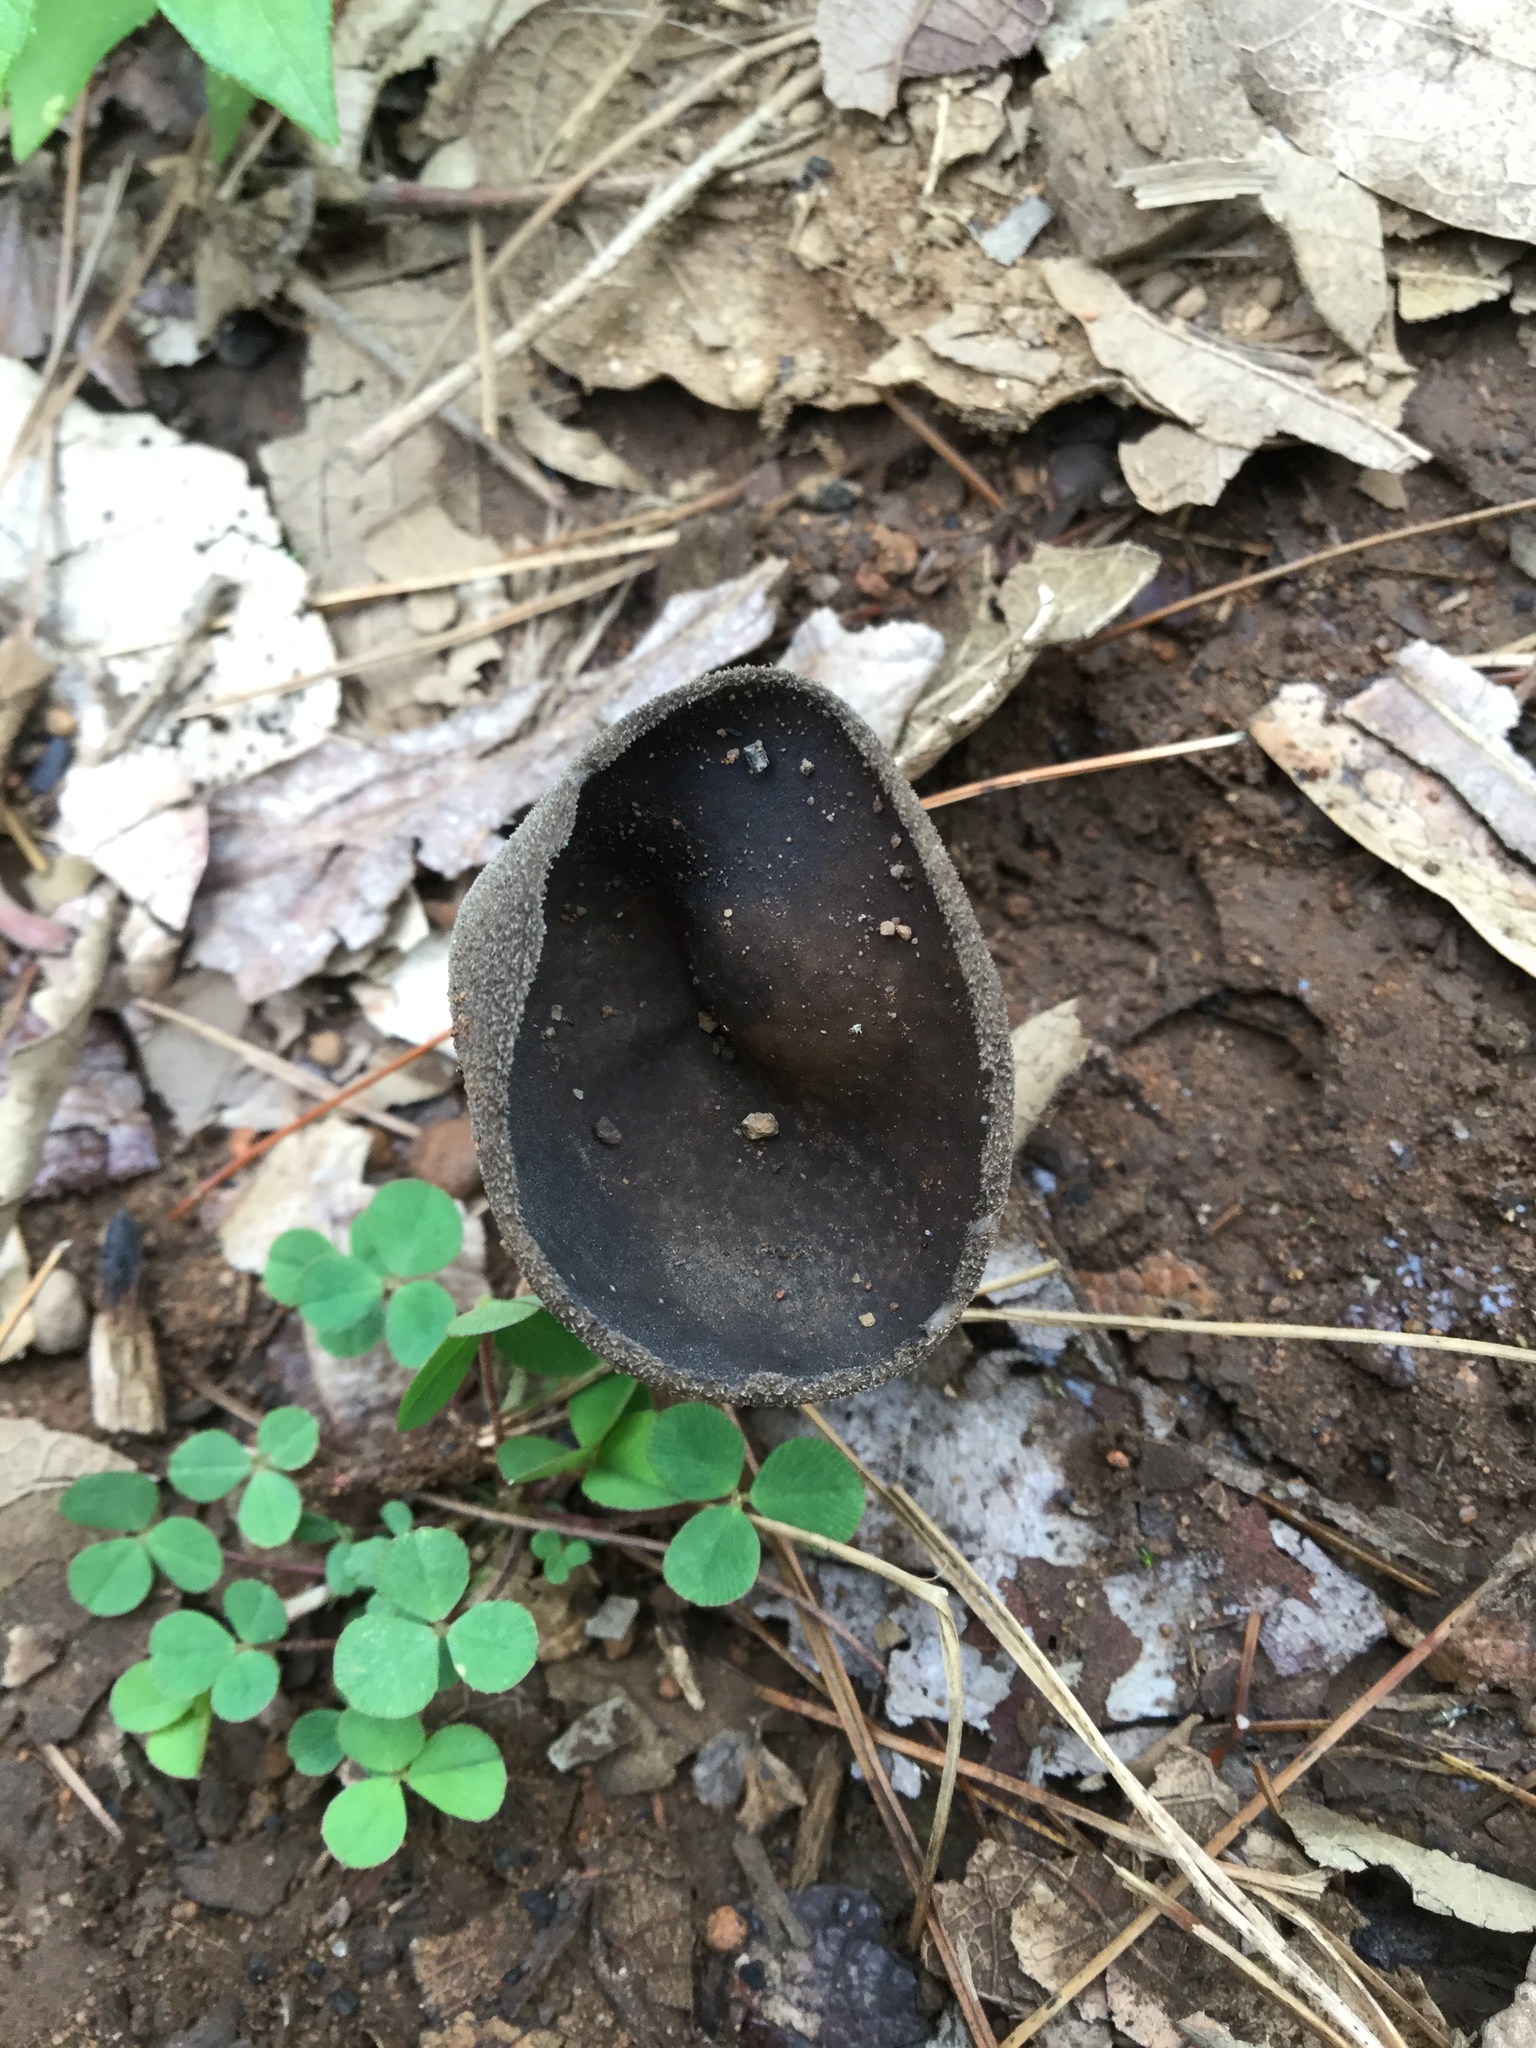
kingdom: Fungi
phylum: Ascomycota
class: Pezizomycetes
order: Pezizales
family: Helvellaceae
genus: Helvella
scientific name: Helvella corium
